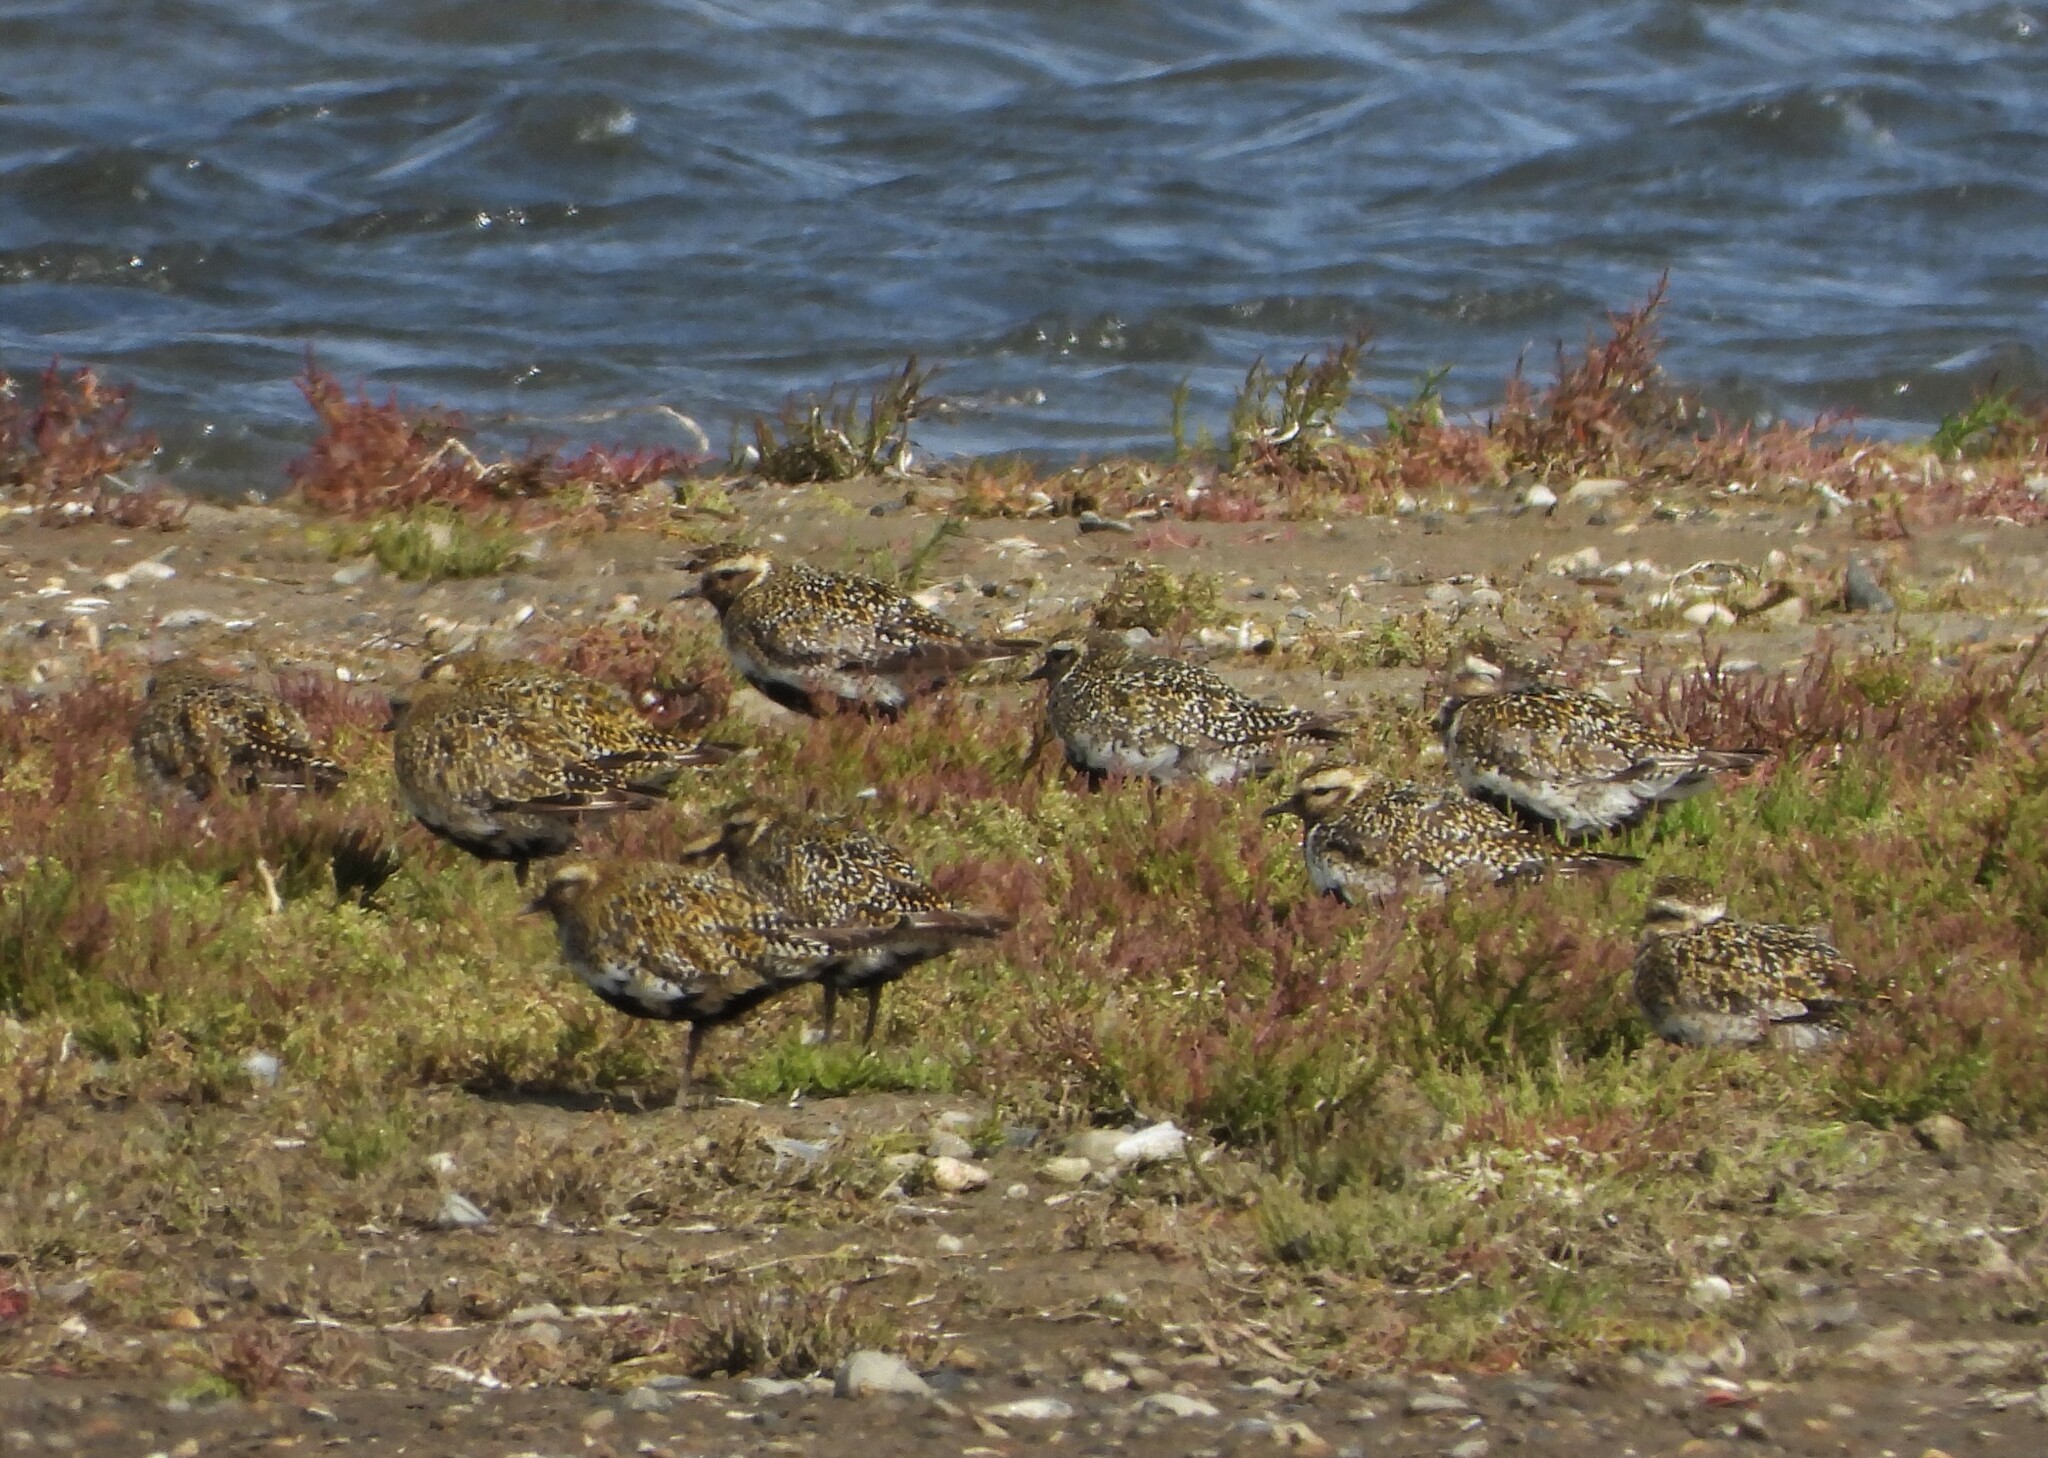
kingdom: Animalia
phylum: Chordata
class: Aves
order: Charadriiformes
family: Charadriidae
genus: Pluvialis
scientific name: Pluvialis apricaria
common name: European golden plover
